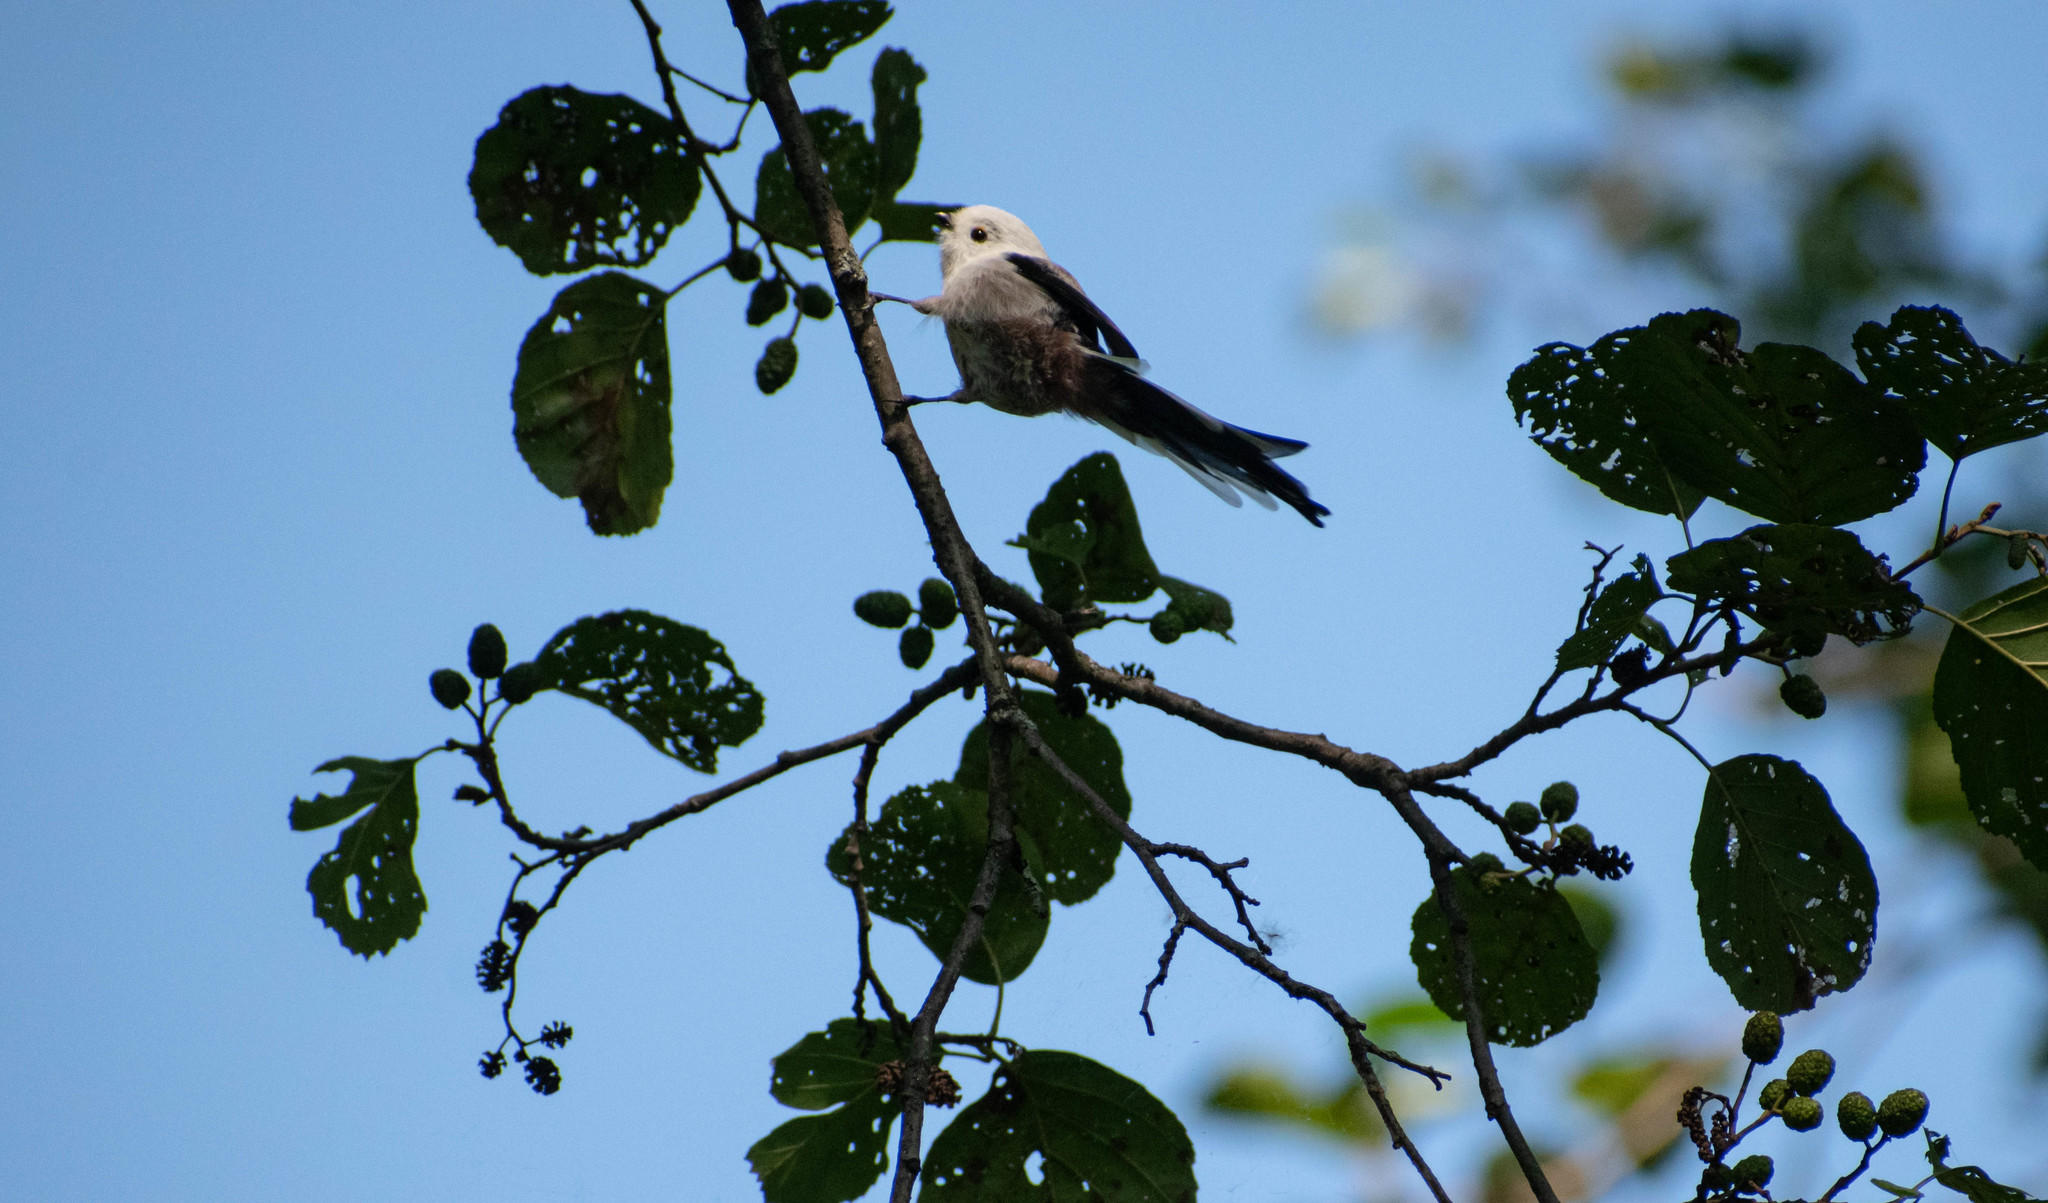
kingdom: Animalia
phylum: Chordata
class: Aves
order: Passeriformes
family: Aegithalidae
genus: Aegithalos
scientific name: Aegithalos caudatus
